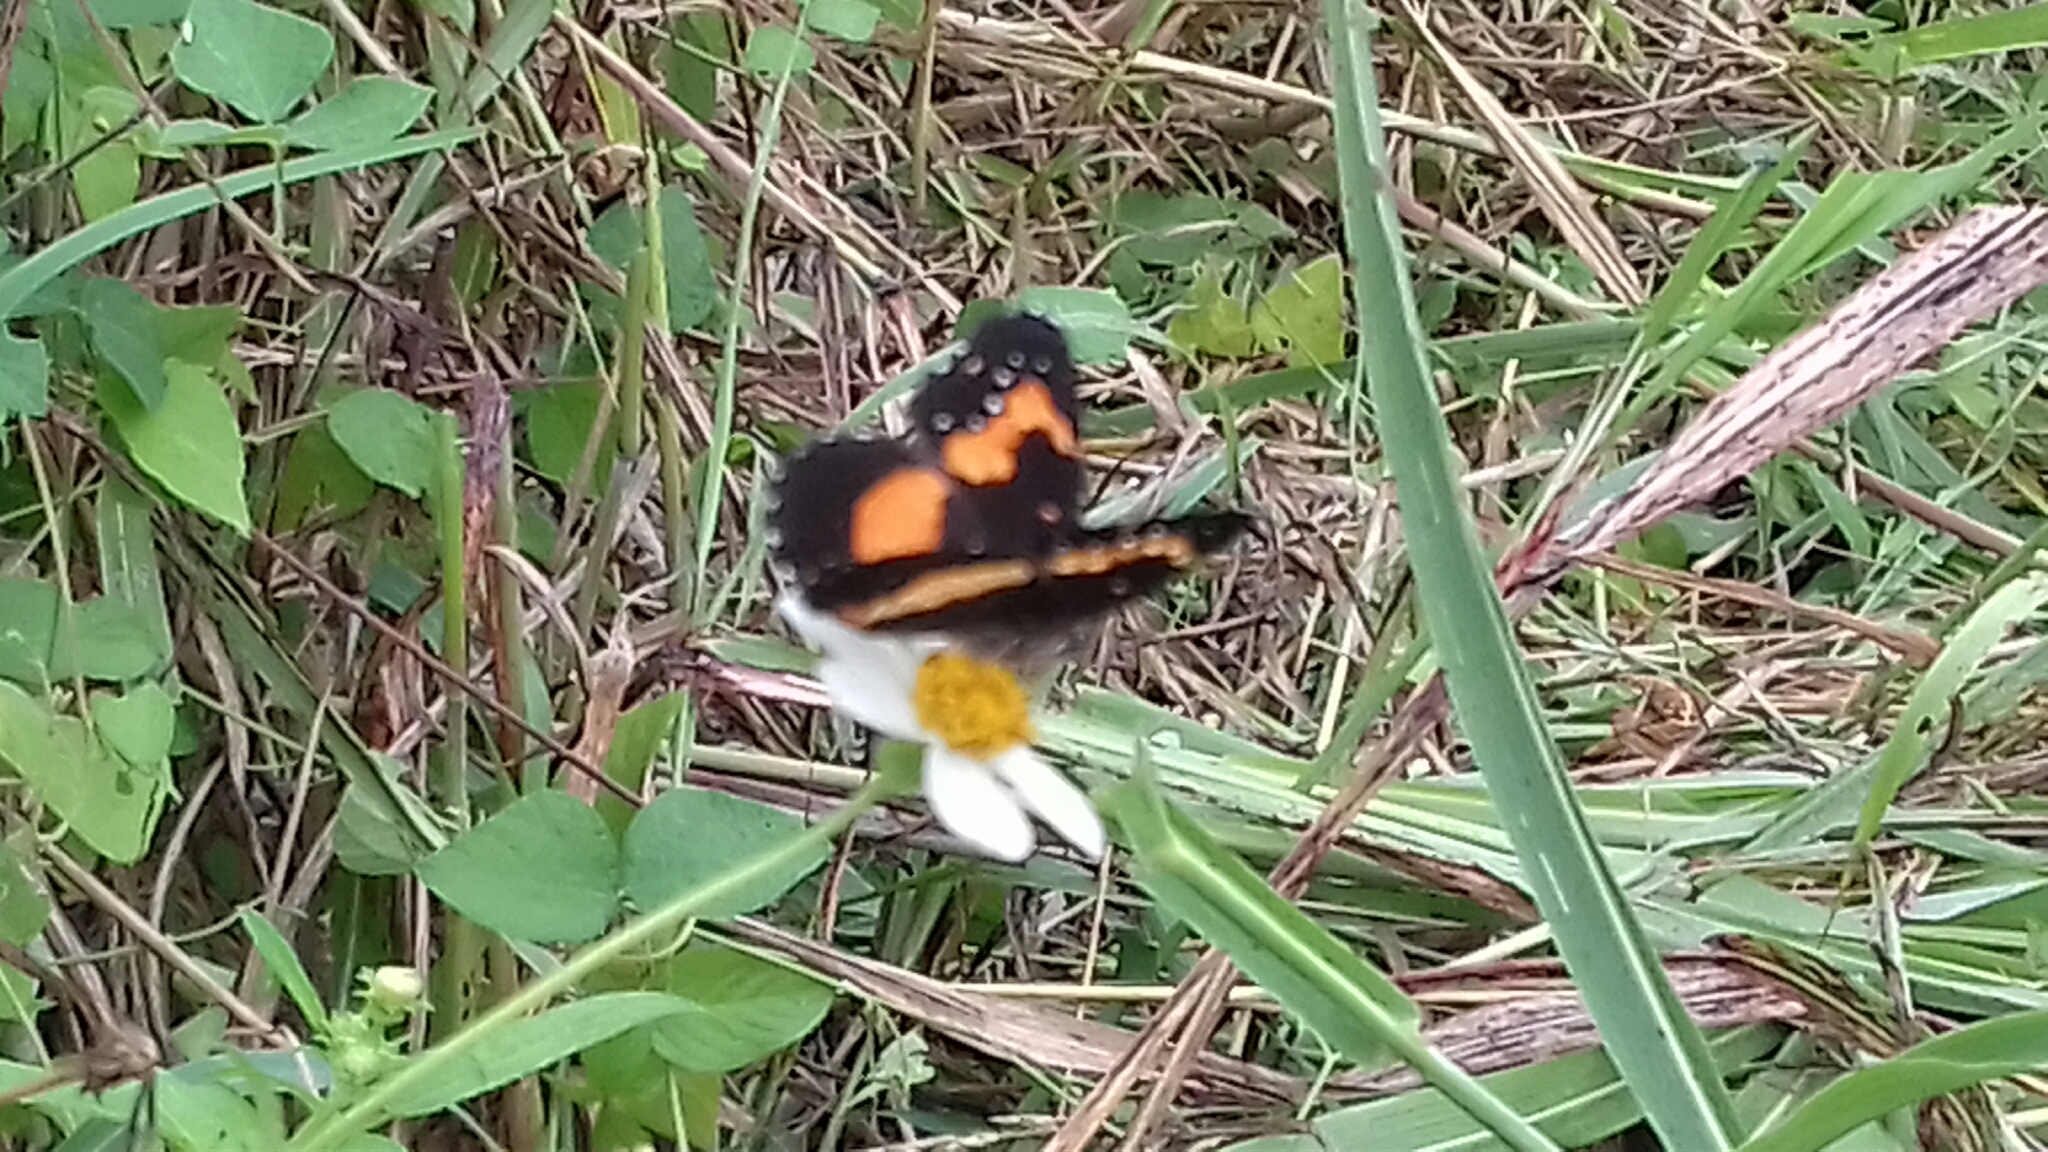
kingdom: Animalia
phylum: Arthropoda
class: Insecta
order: Lepidoptera
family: Nymphalidae
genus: Chlosyne
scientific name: Chlosyne lacinia
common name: Bordered patch
